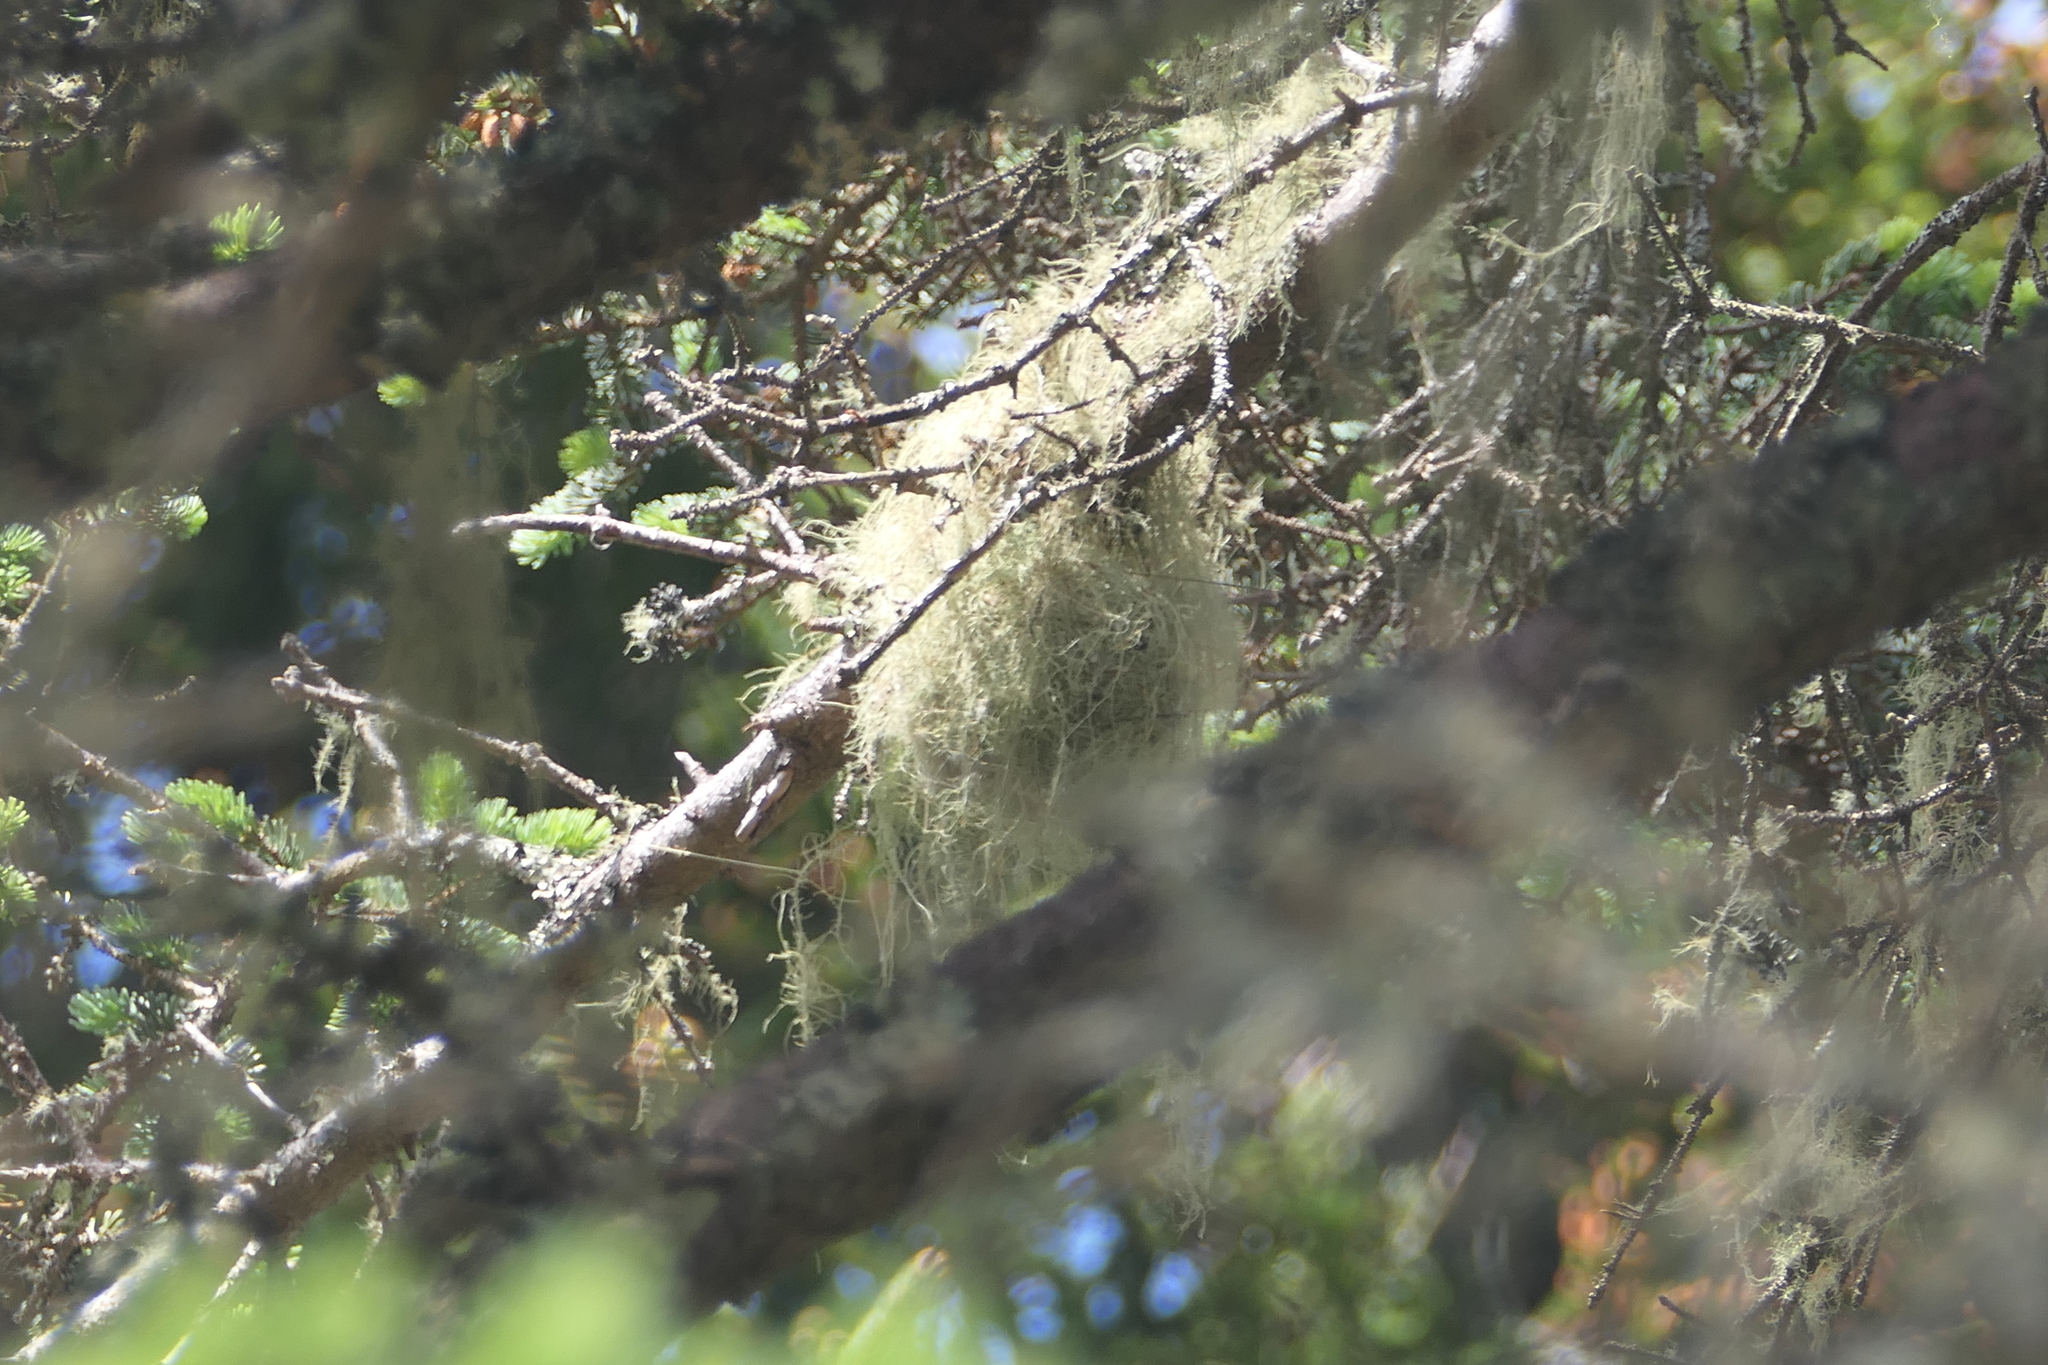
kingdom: Animalia
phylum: Chordata
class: Aves
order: Passeriformes
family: Parulidae
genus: Setophaga
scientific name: Setophaga americana
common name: Northern parula
